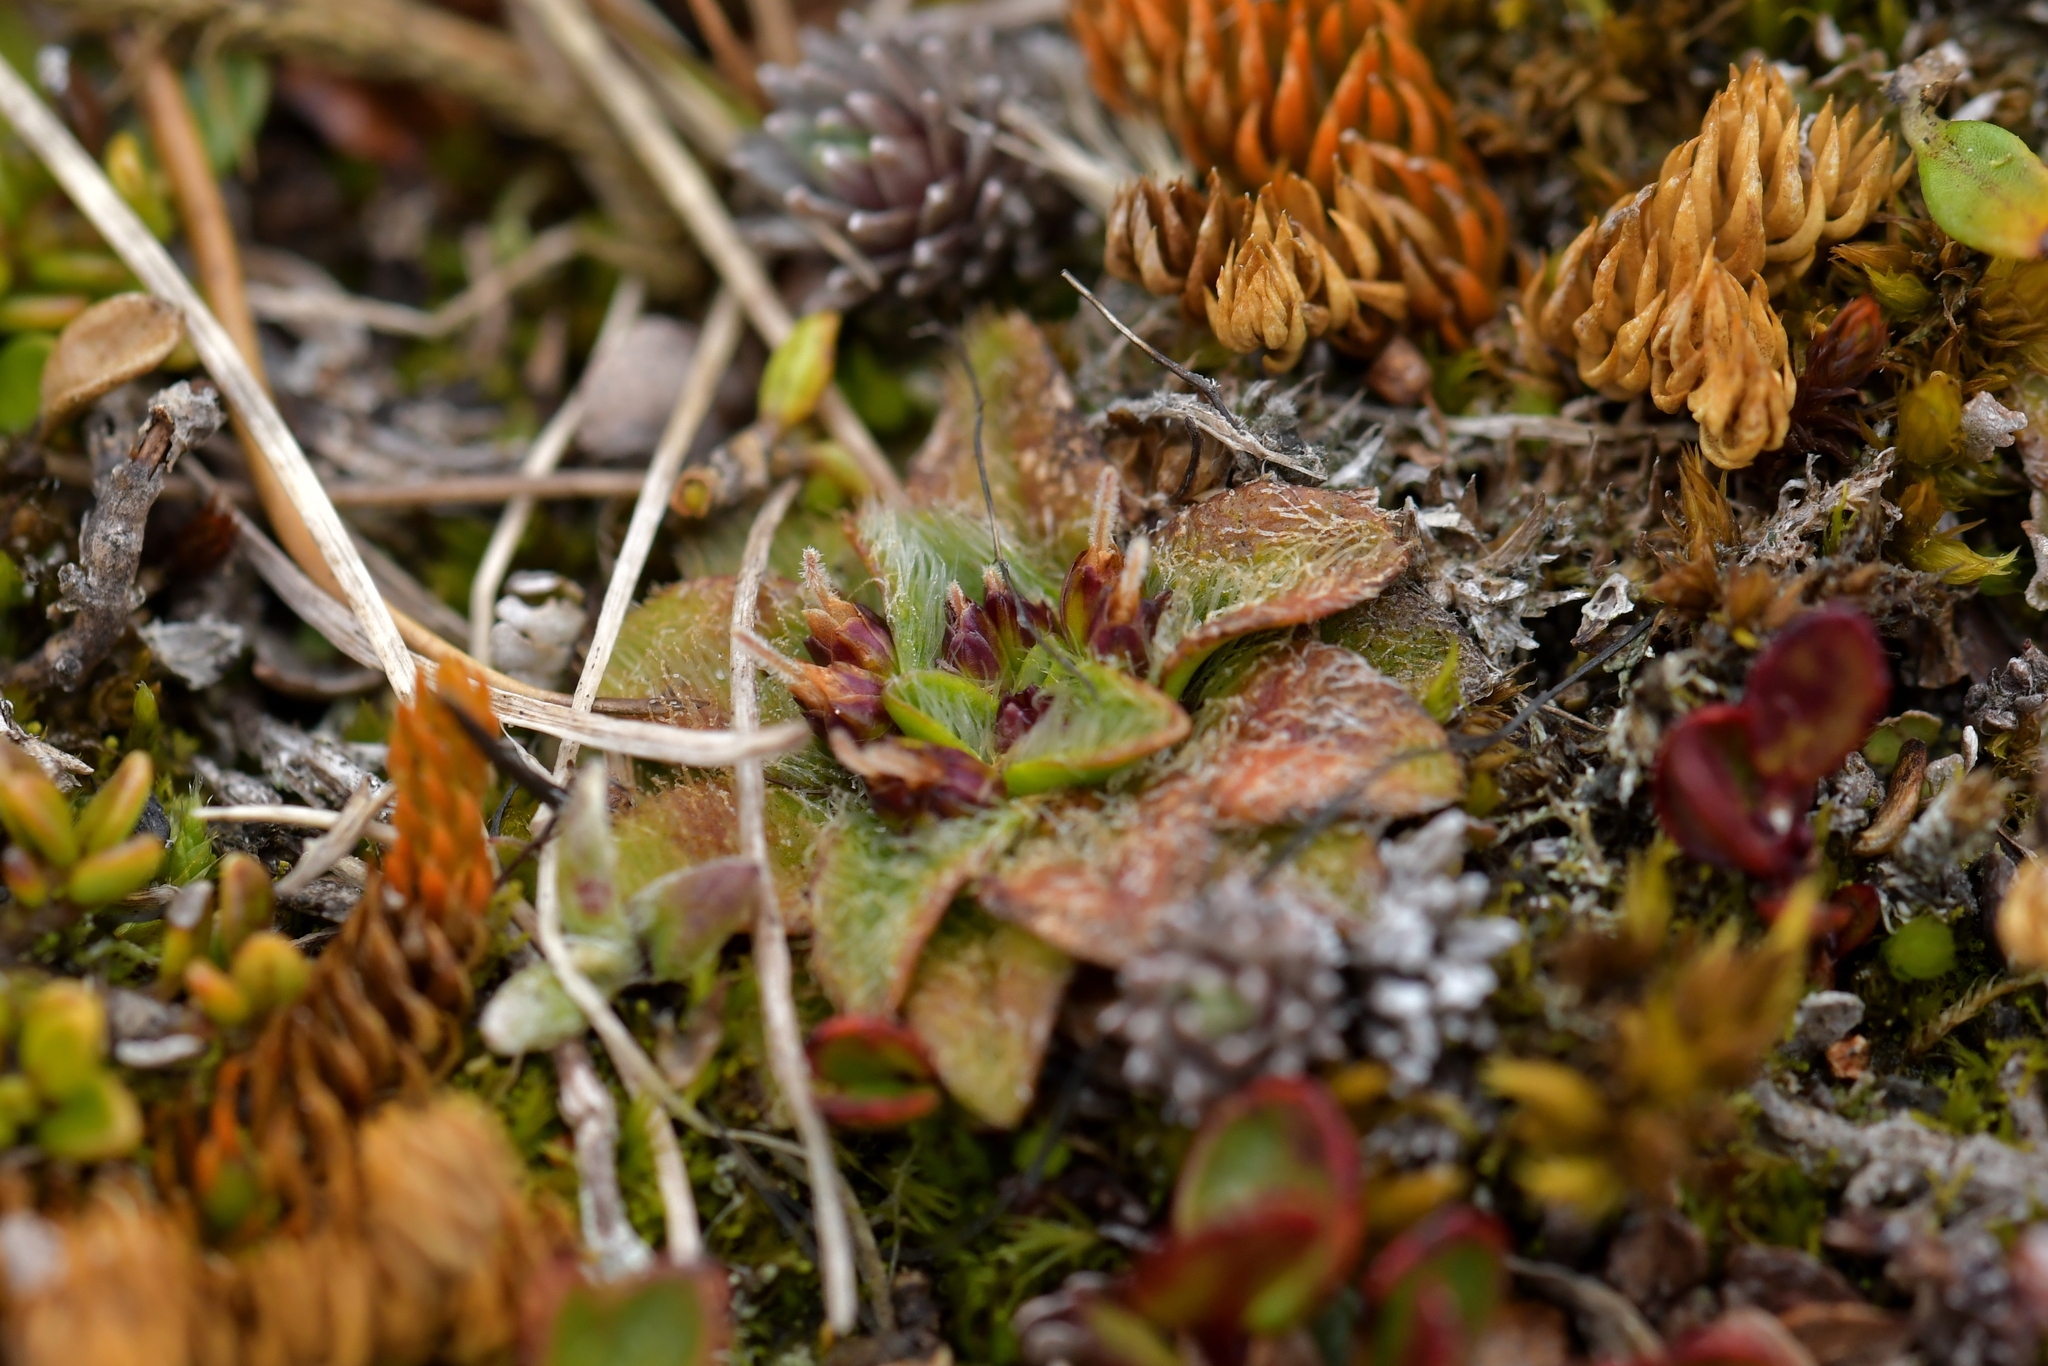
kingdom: Plantae
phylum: Tracheophyta
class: Magnoliopsida
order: Lamiales
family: Plantaginaceae
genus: Plantago
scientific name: Plantago lanigera
